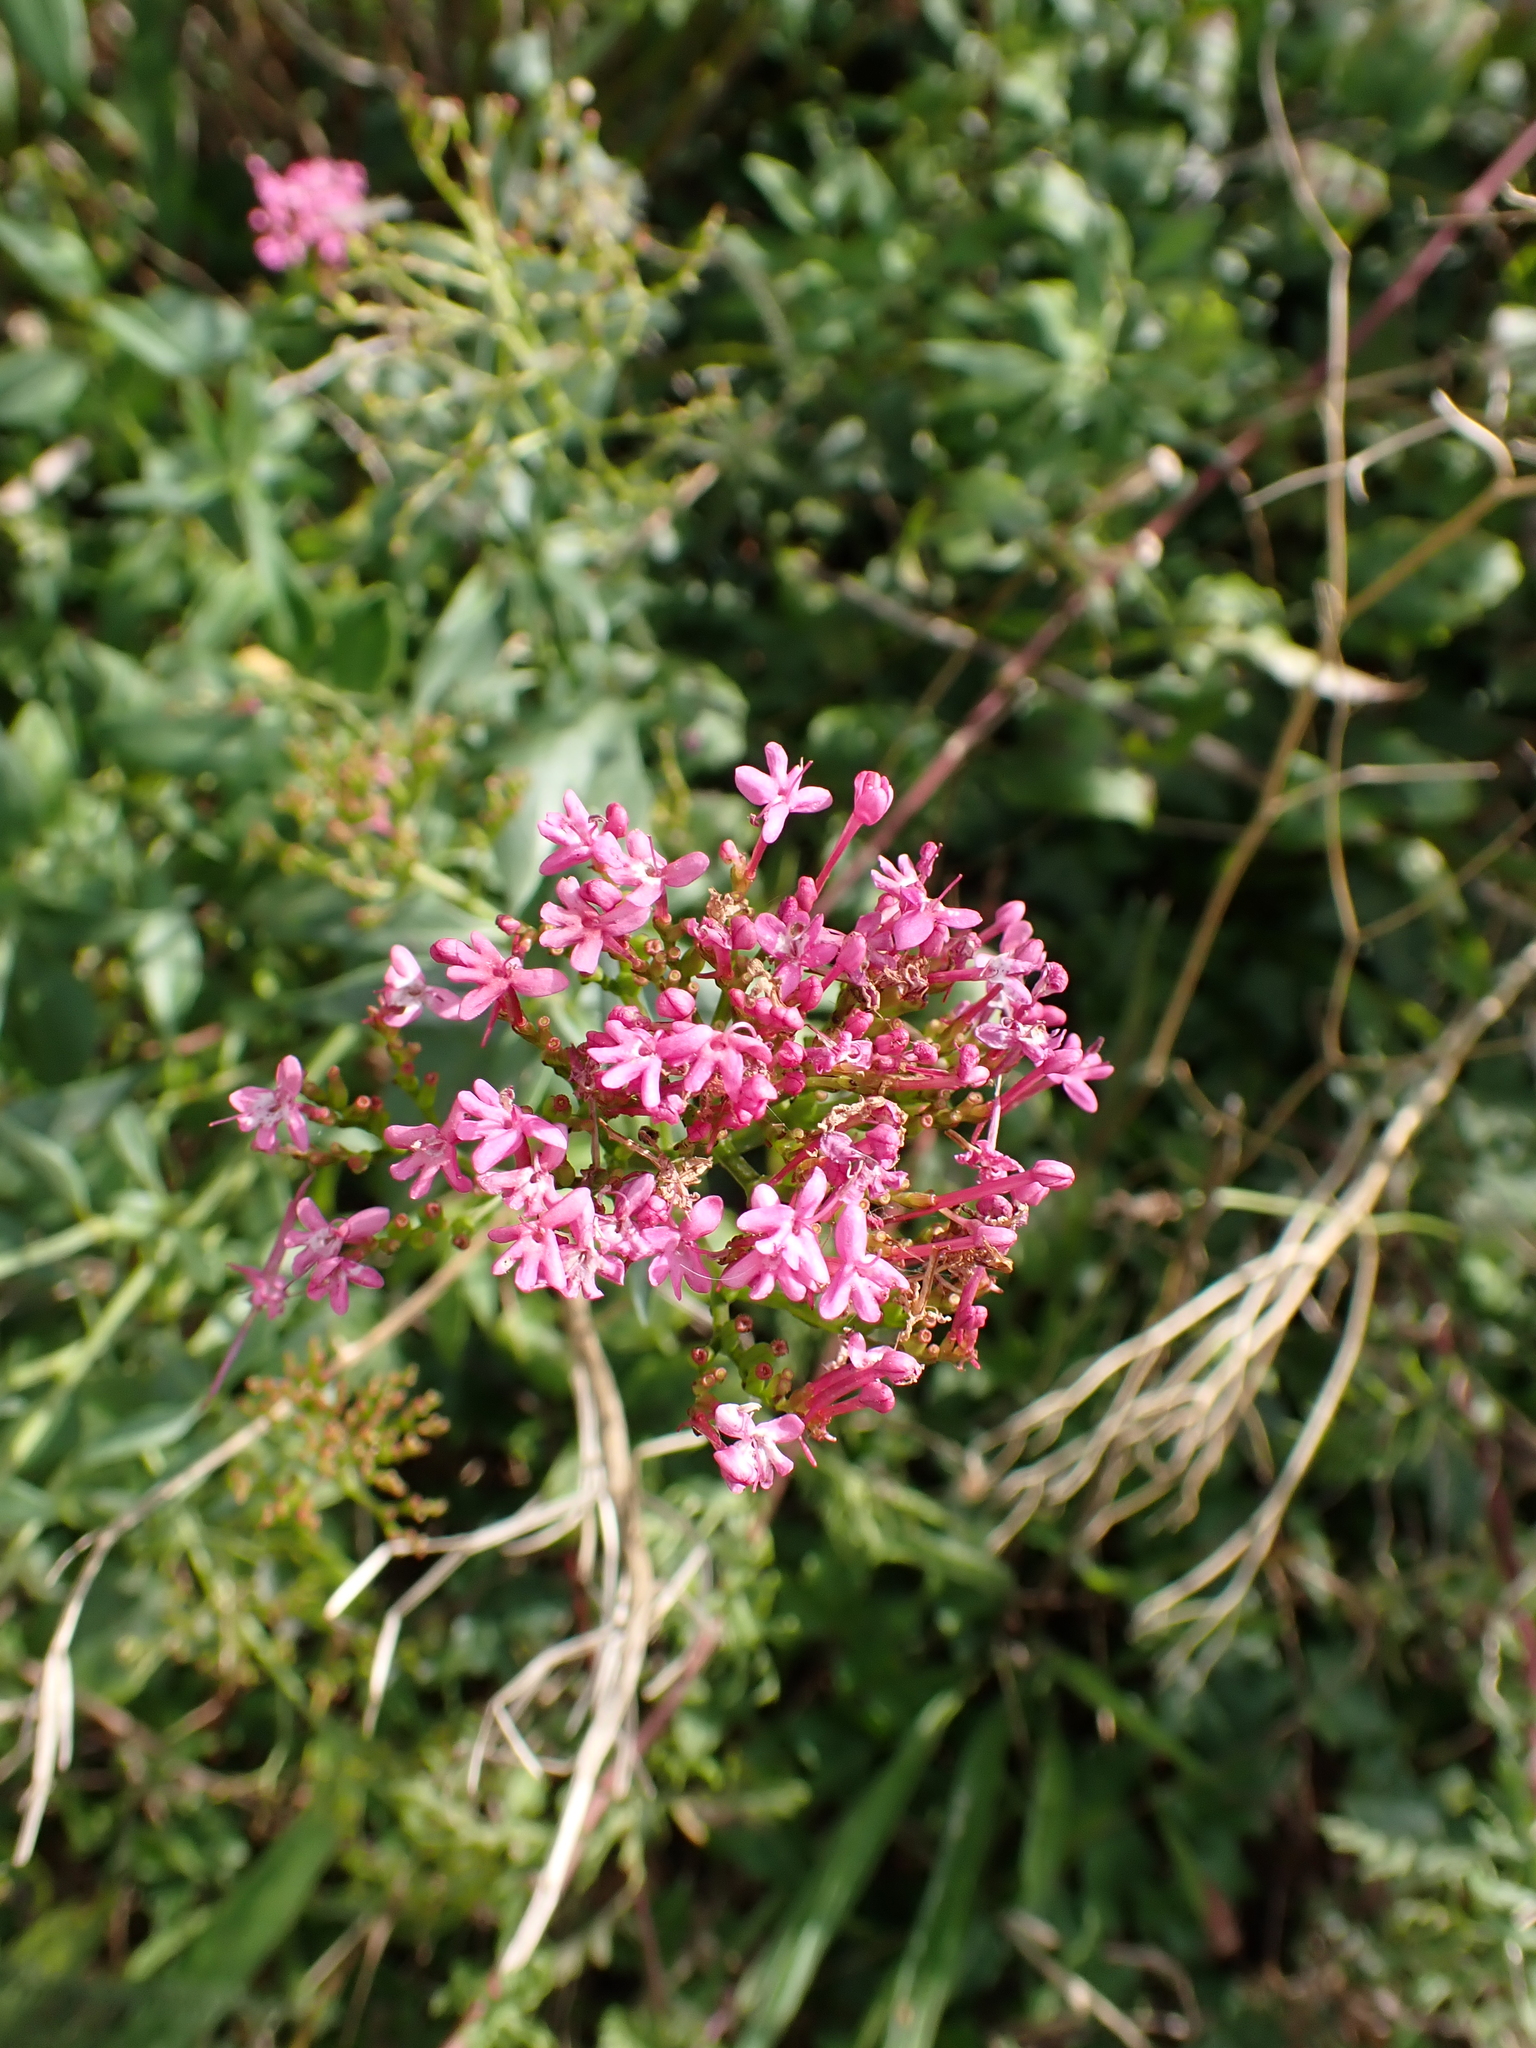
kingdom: Plantae
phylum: Tracheophyta
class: Magnoliopsida
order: Dipsacales
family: Caprifoliaceae
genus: Centranthus
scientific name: Centranthus ruber
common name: Red valerian
